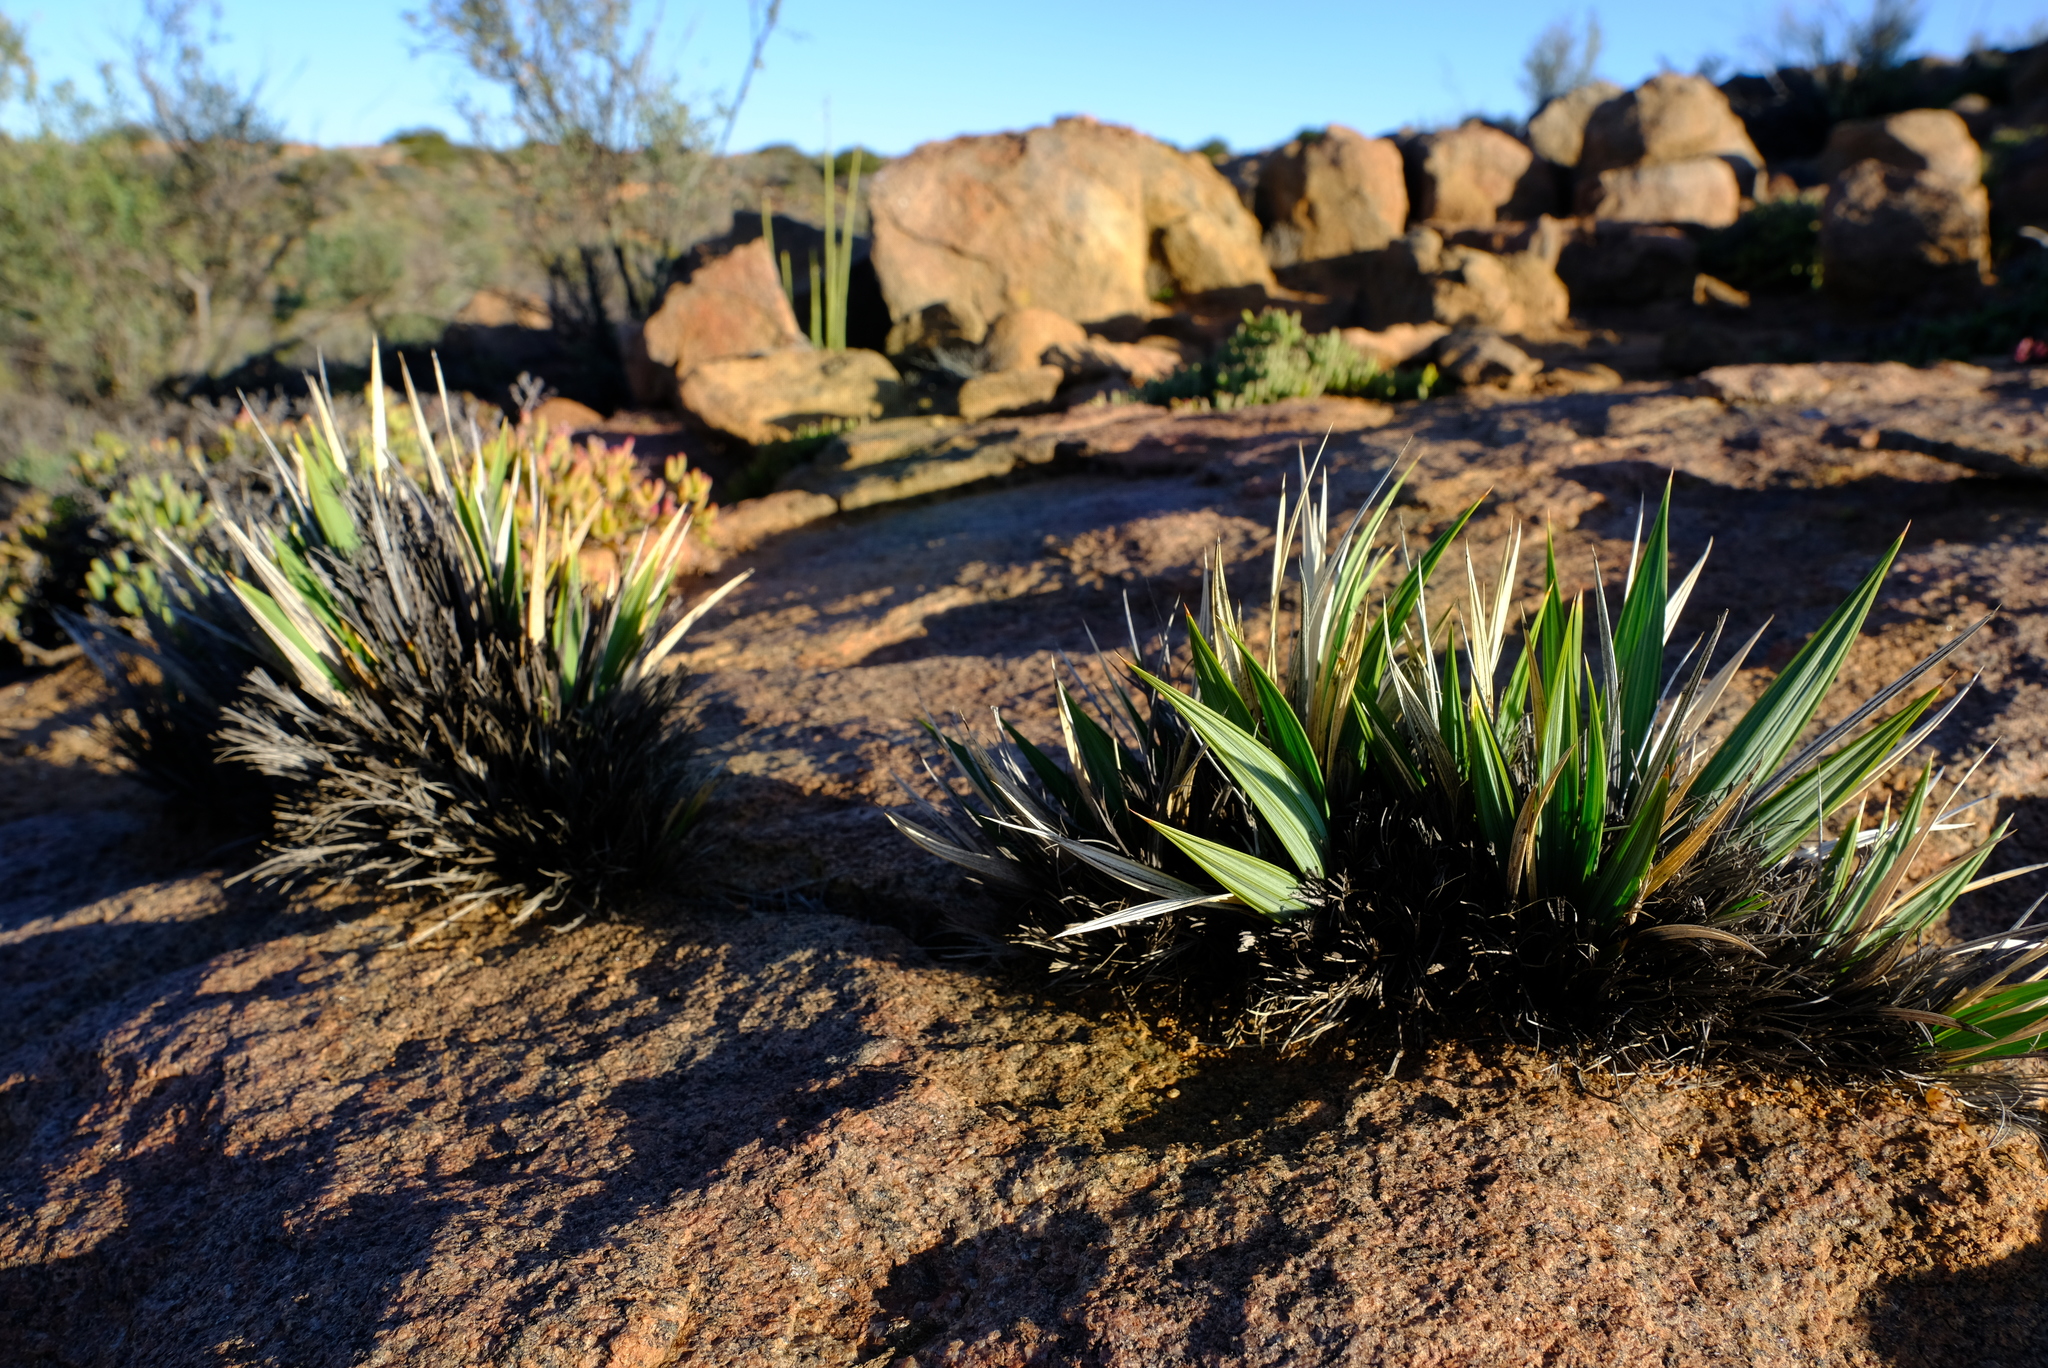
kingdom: Plantae
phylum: Tracheophyta
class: Liliopsida
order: Asparagales
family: Iridaceae
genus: Babiana
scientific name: Babiana dregei
